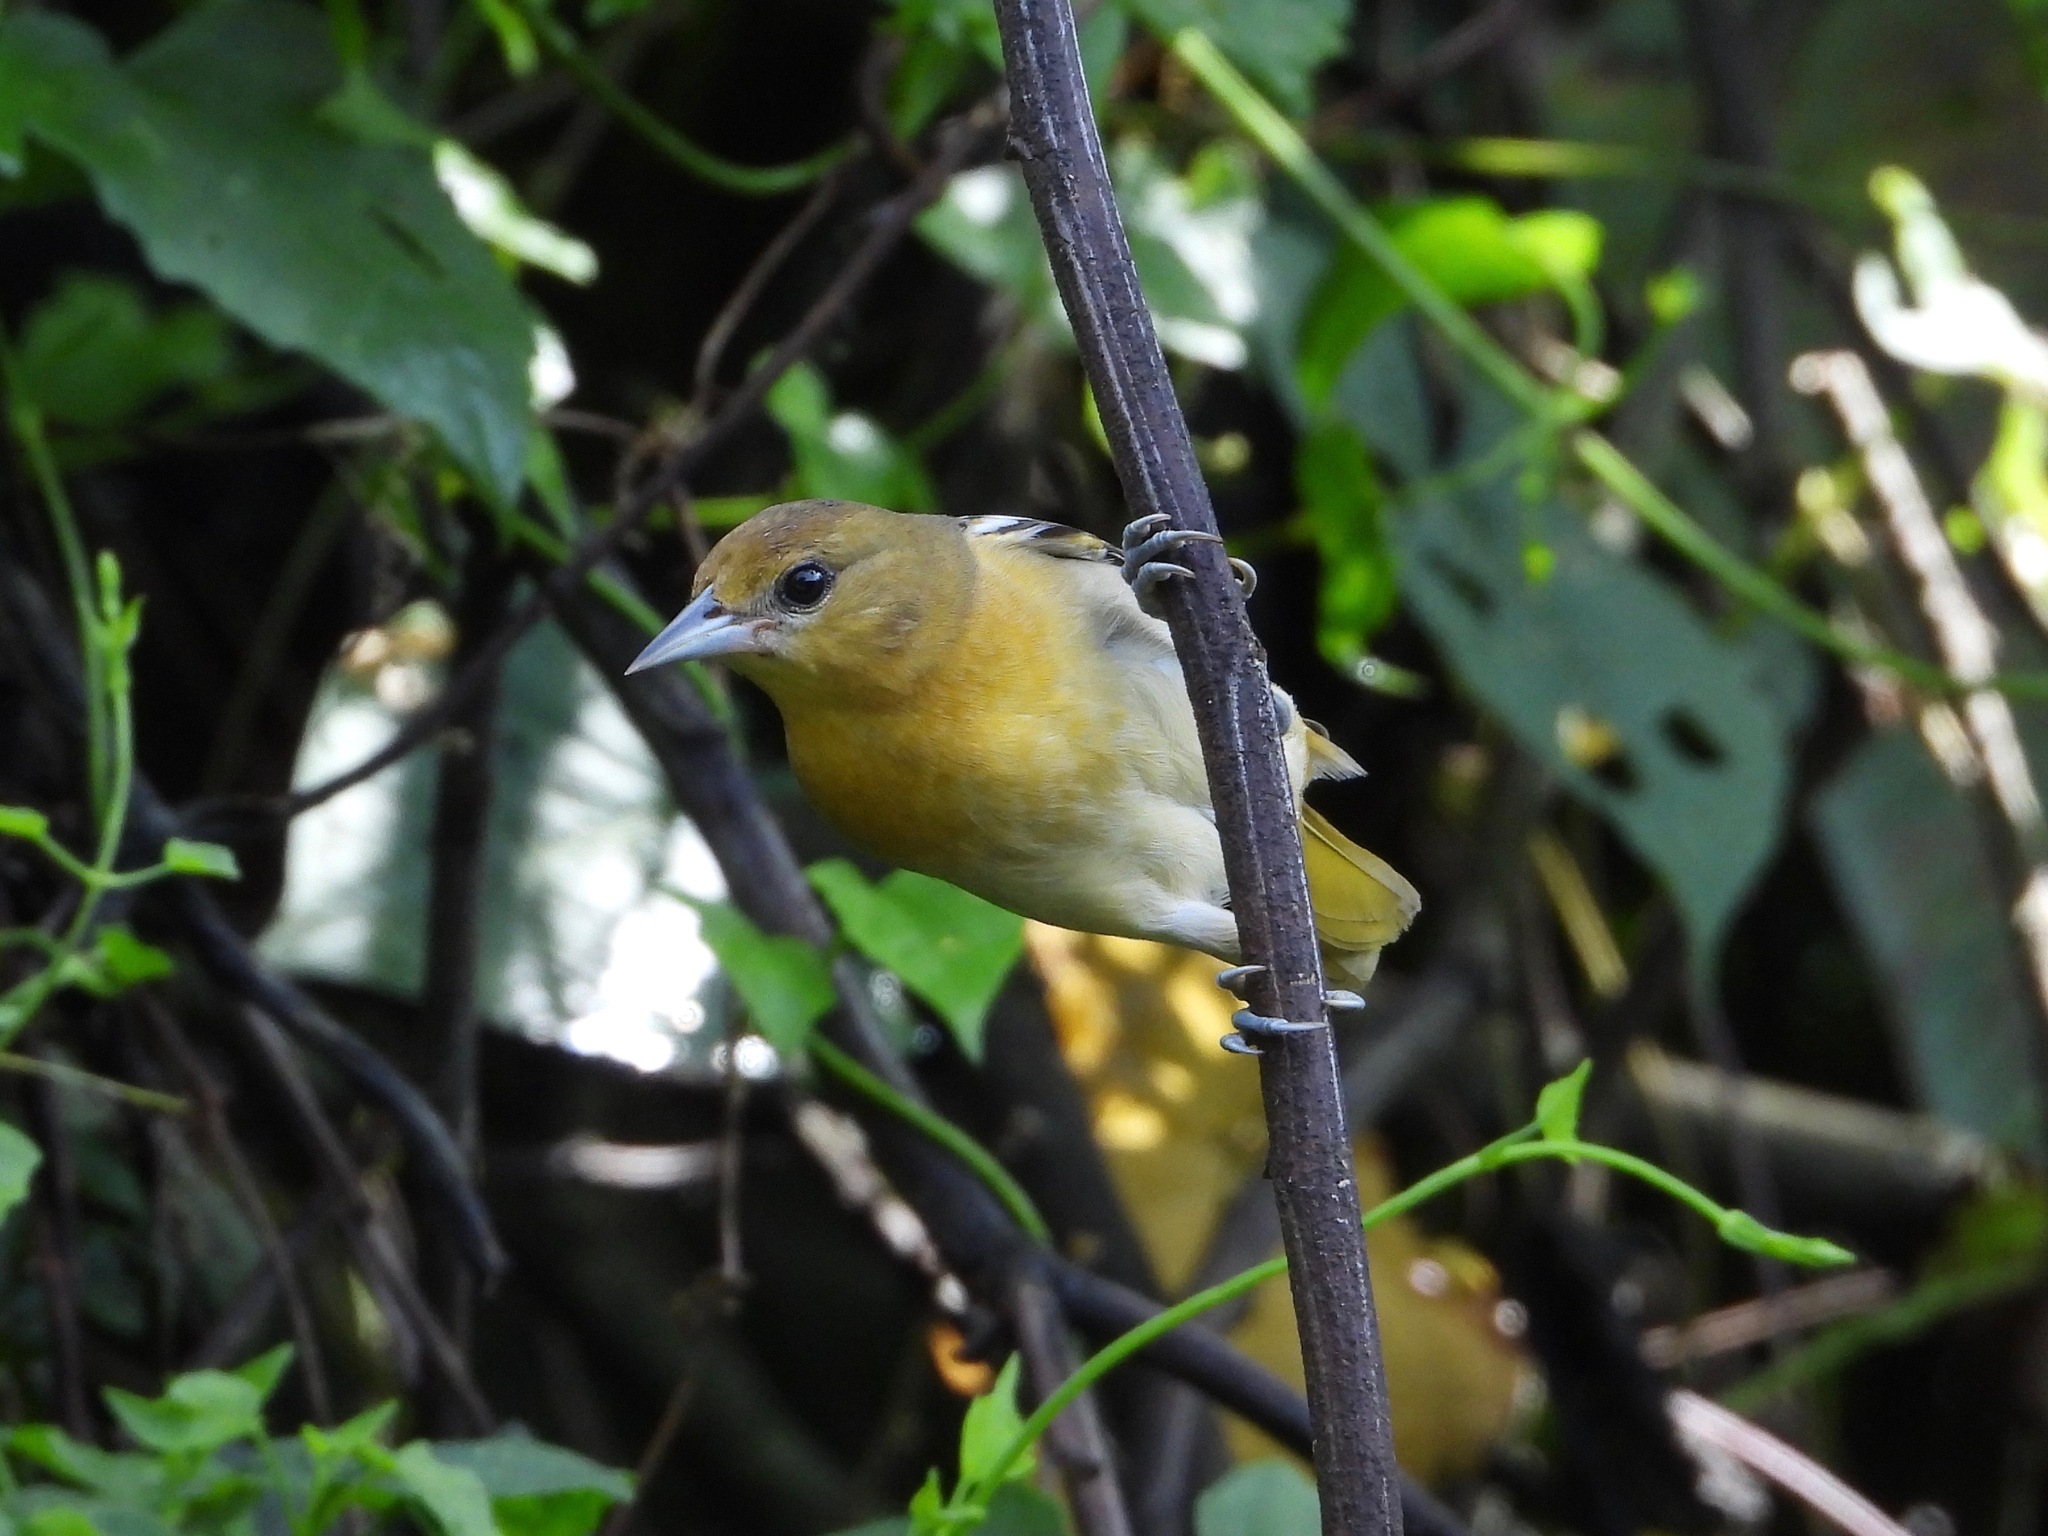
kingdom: Animalia
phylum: Chordata
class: Aves
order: Passeriformes
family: Icteridae
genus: Icterus
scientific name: Icterus galbula
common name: Baltimore oriole
